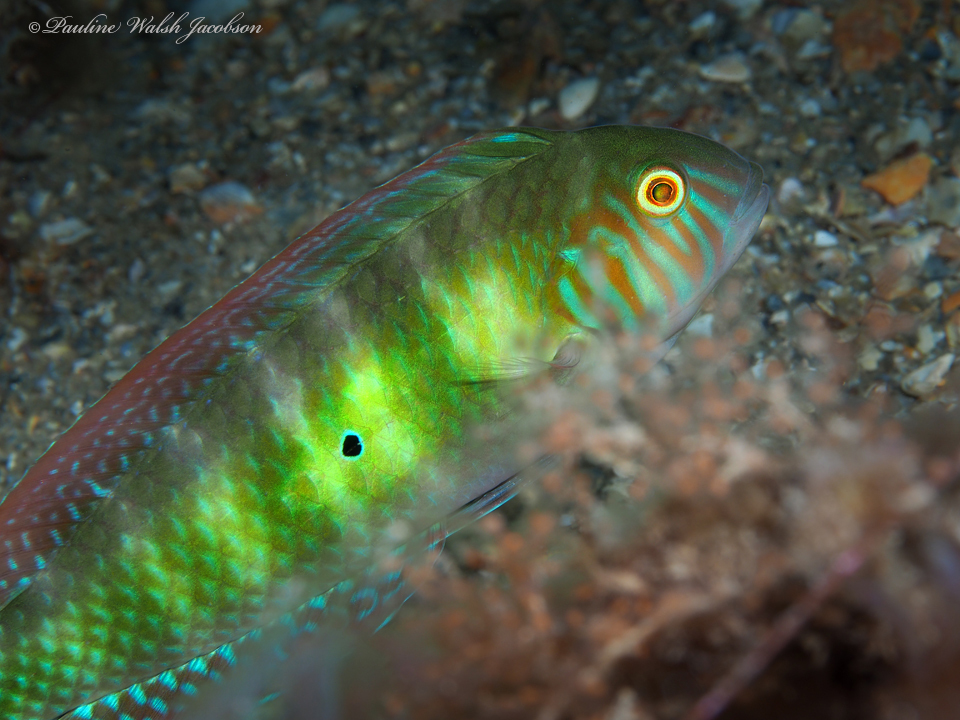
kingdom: Animalia
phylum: Chordata
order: Perciformes
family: Labridae
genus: Xyrichtys
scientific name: Xyrichtys splendens
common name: Green razorfish
